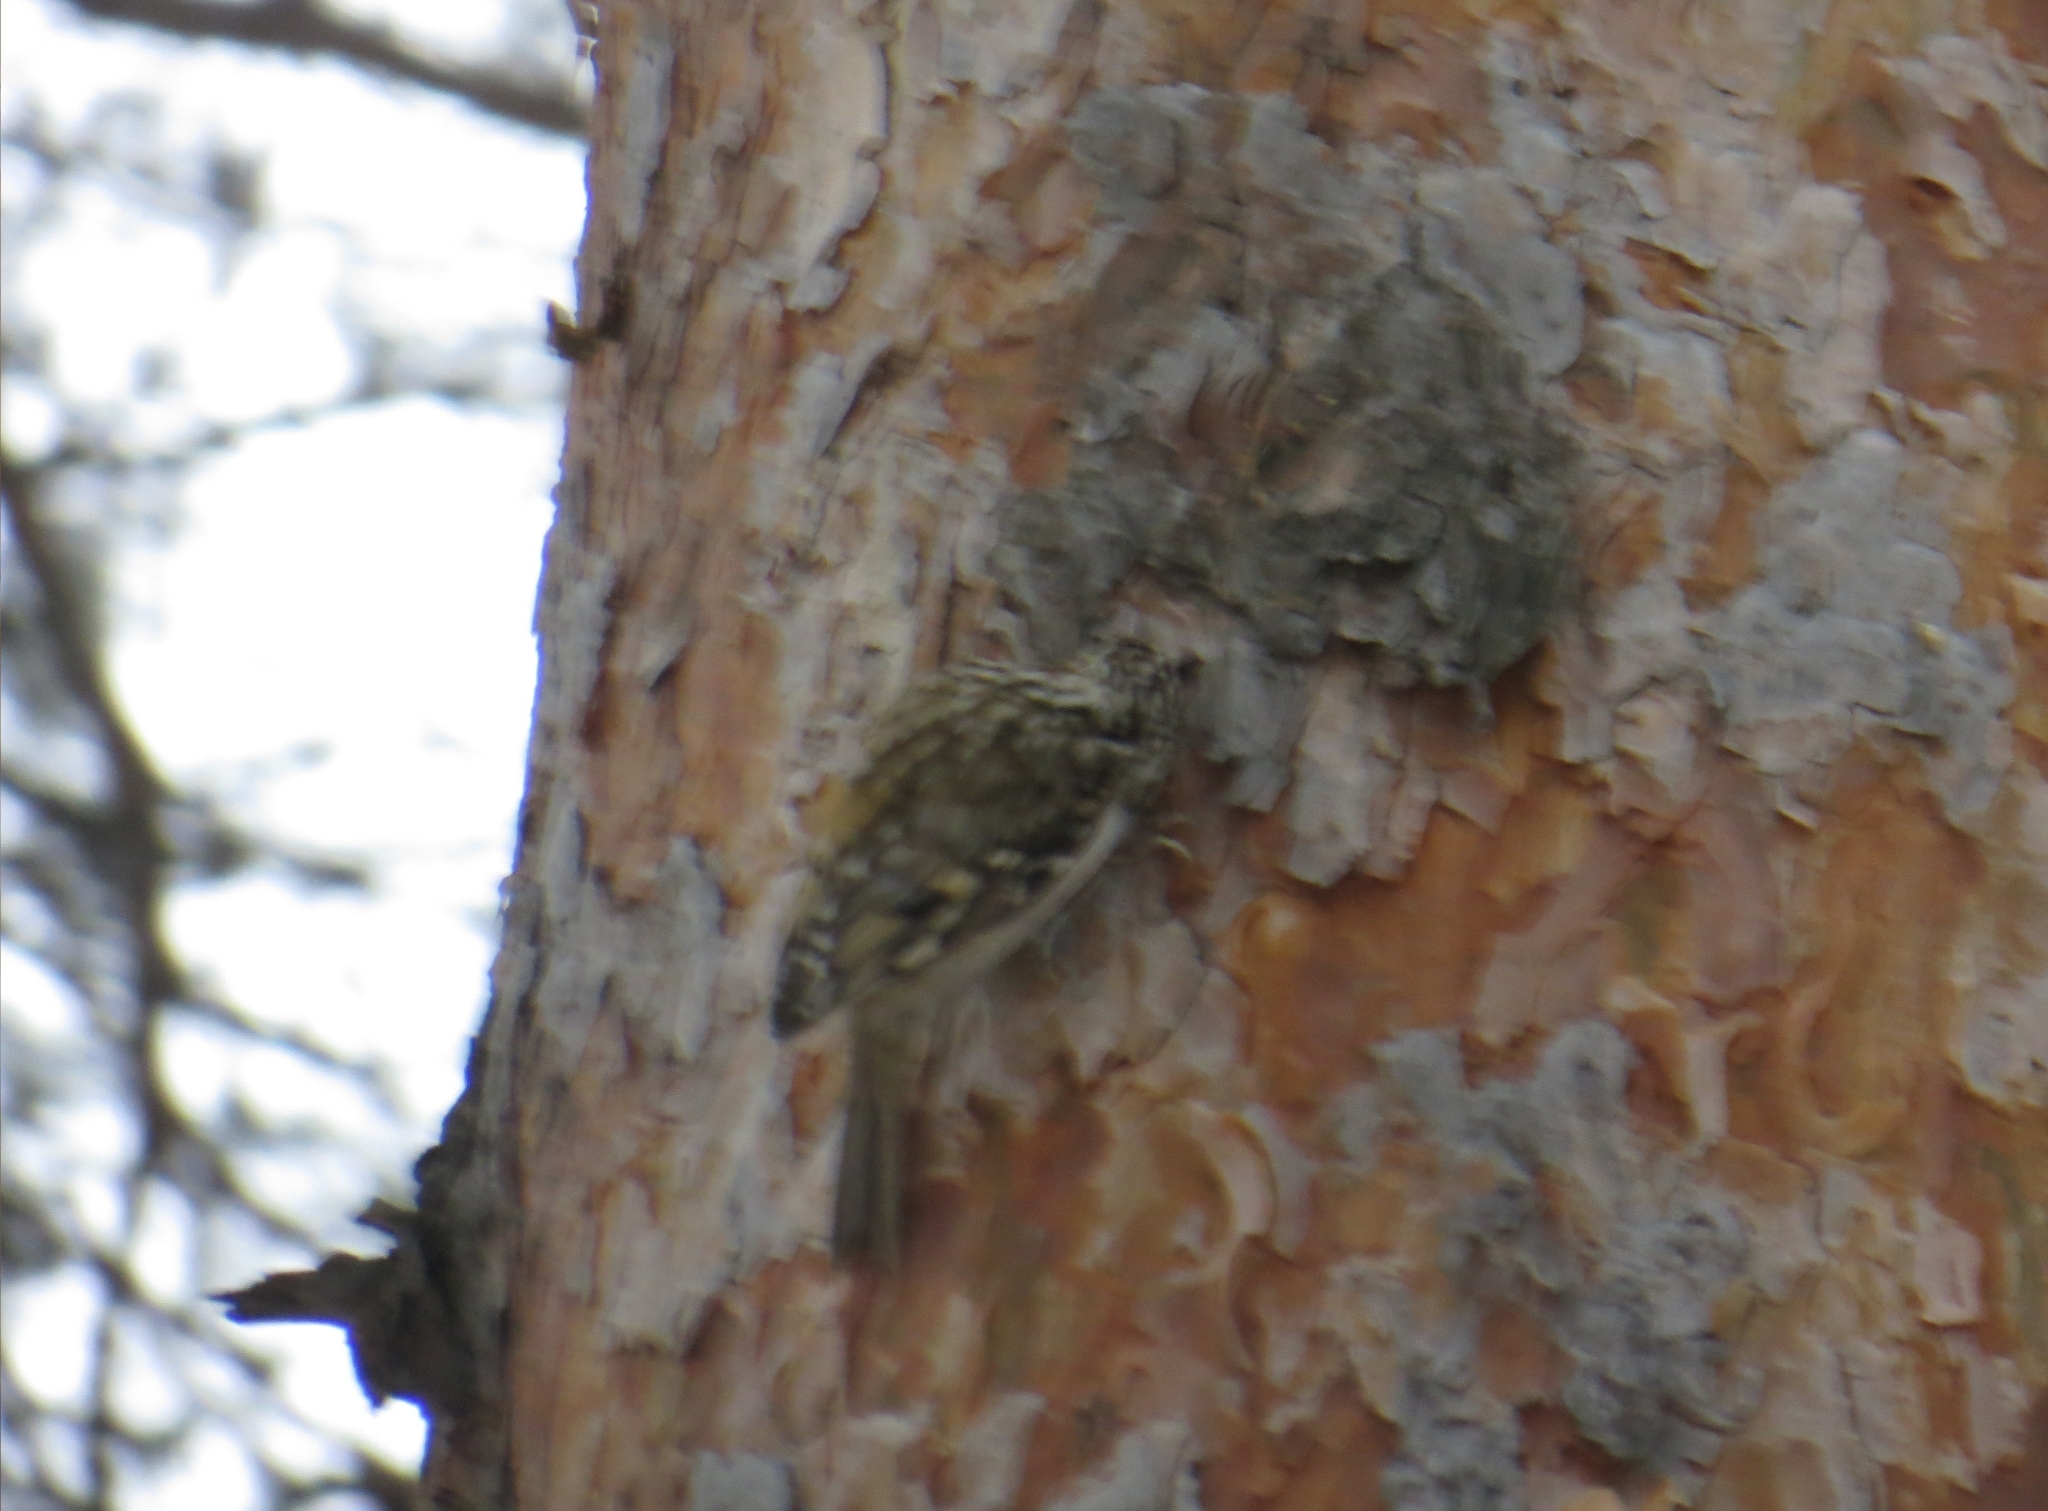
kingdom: Animalia
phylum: Chordata
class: Aves
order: Passeriformes
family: Certhiidae
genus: Certhia
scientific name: Certhia familiaris
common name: Eurasian treecreeper
